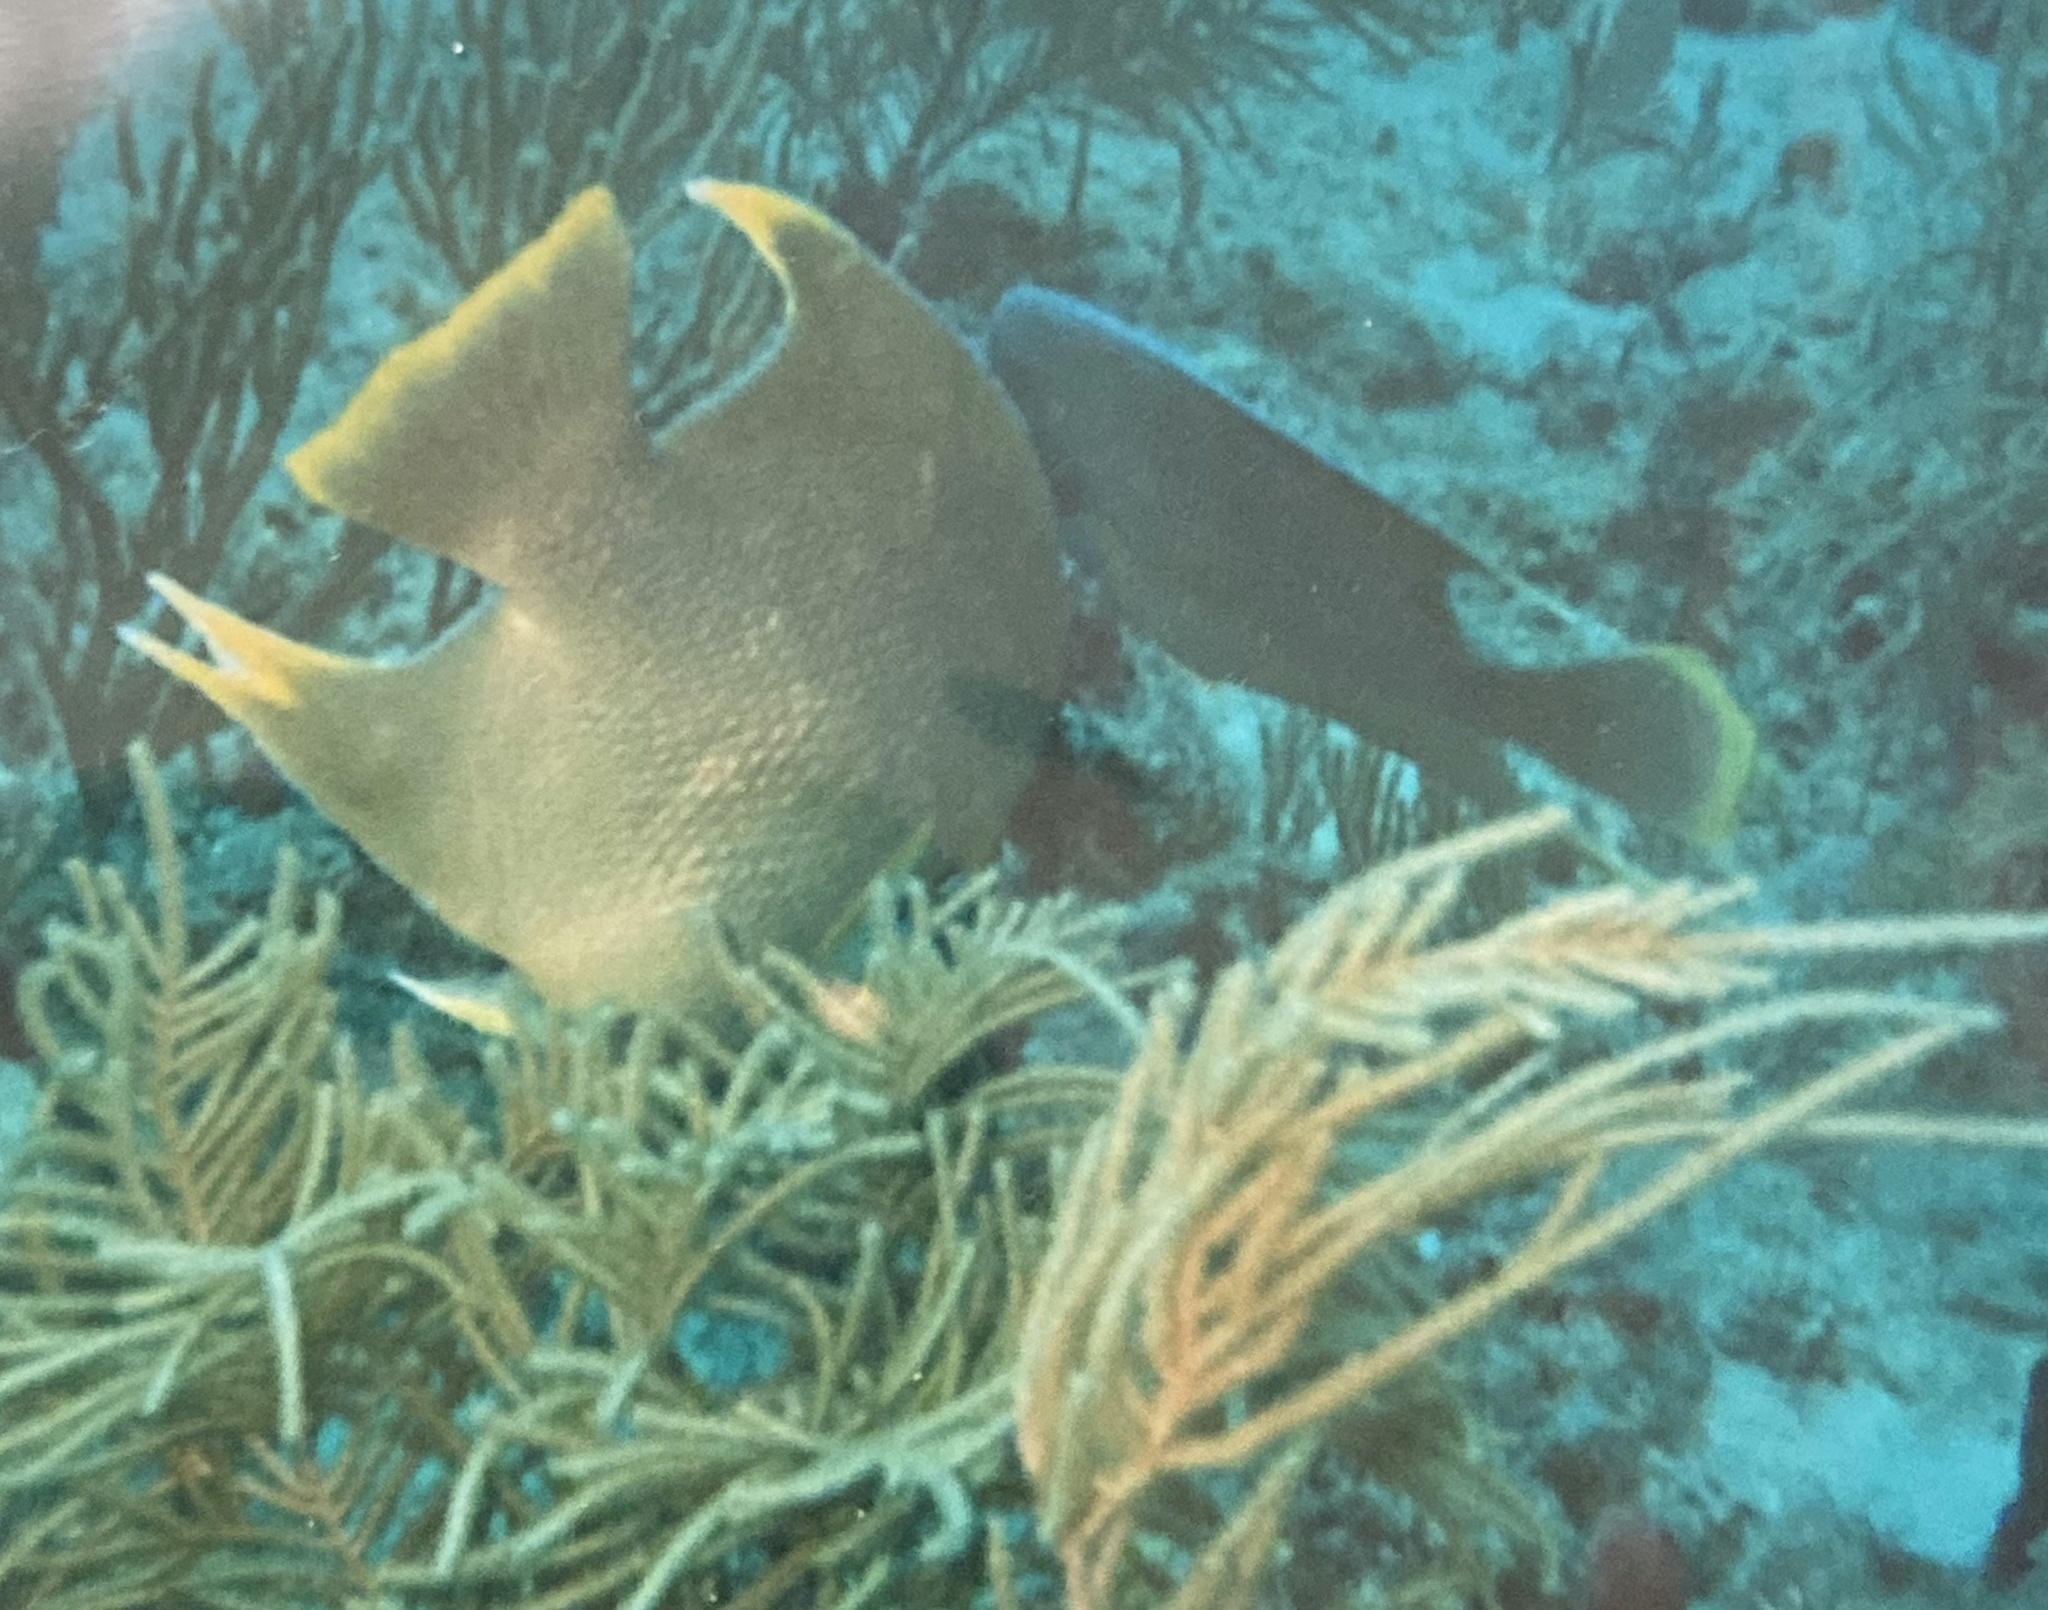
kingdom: Animalia
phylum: Chordata
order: Perciformes
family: Pomacanthidae
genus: Holacanthus
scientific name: Holacanthus bermudensis
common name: Blue angelfish
